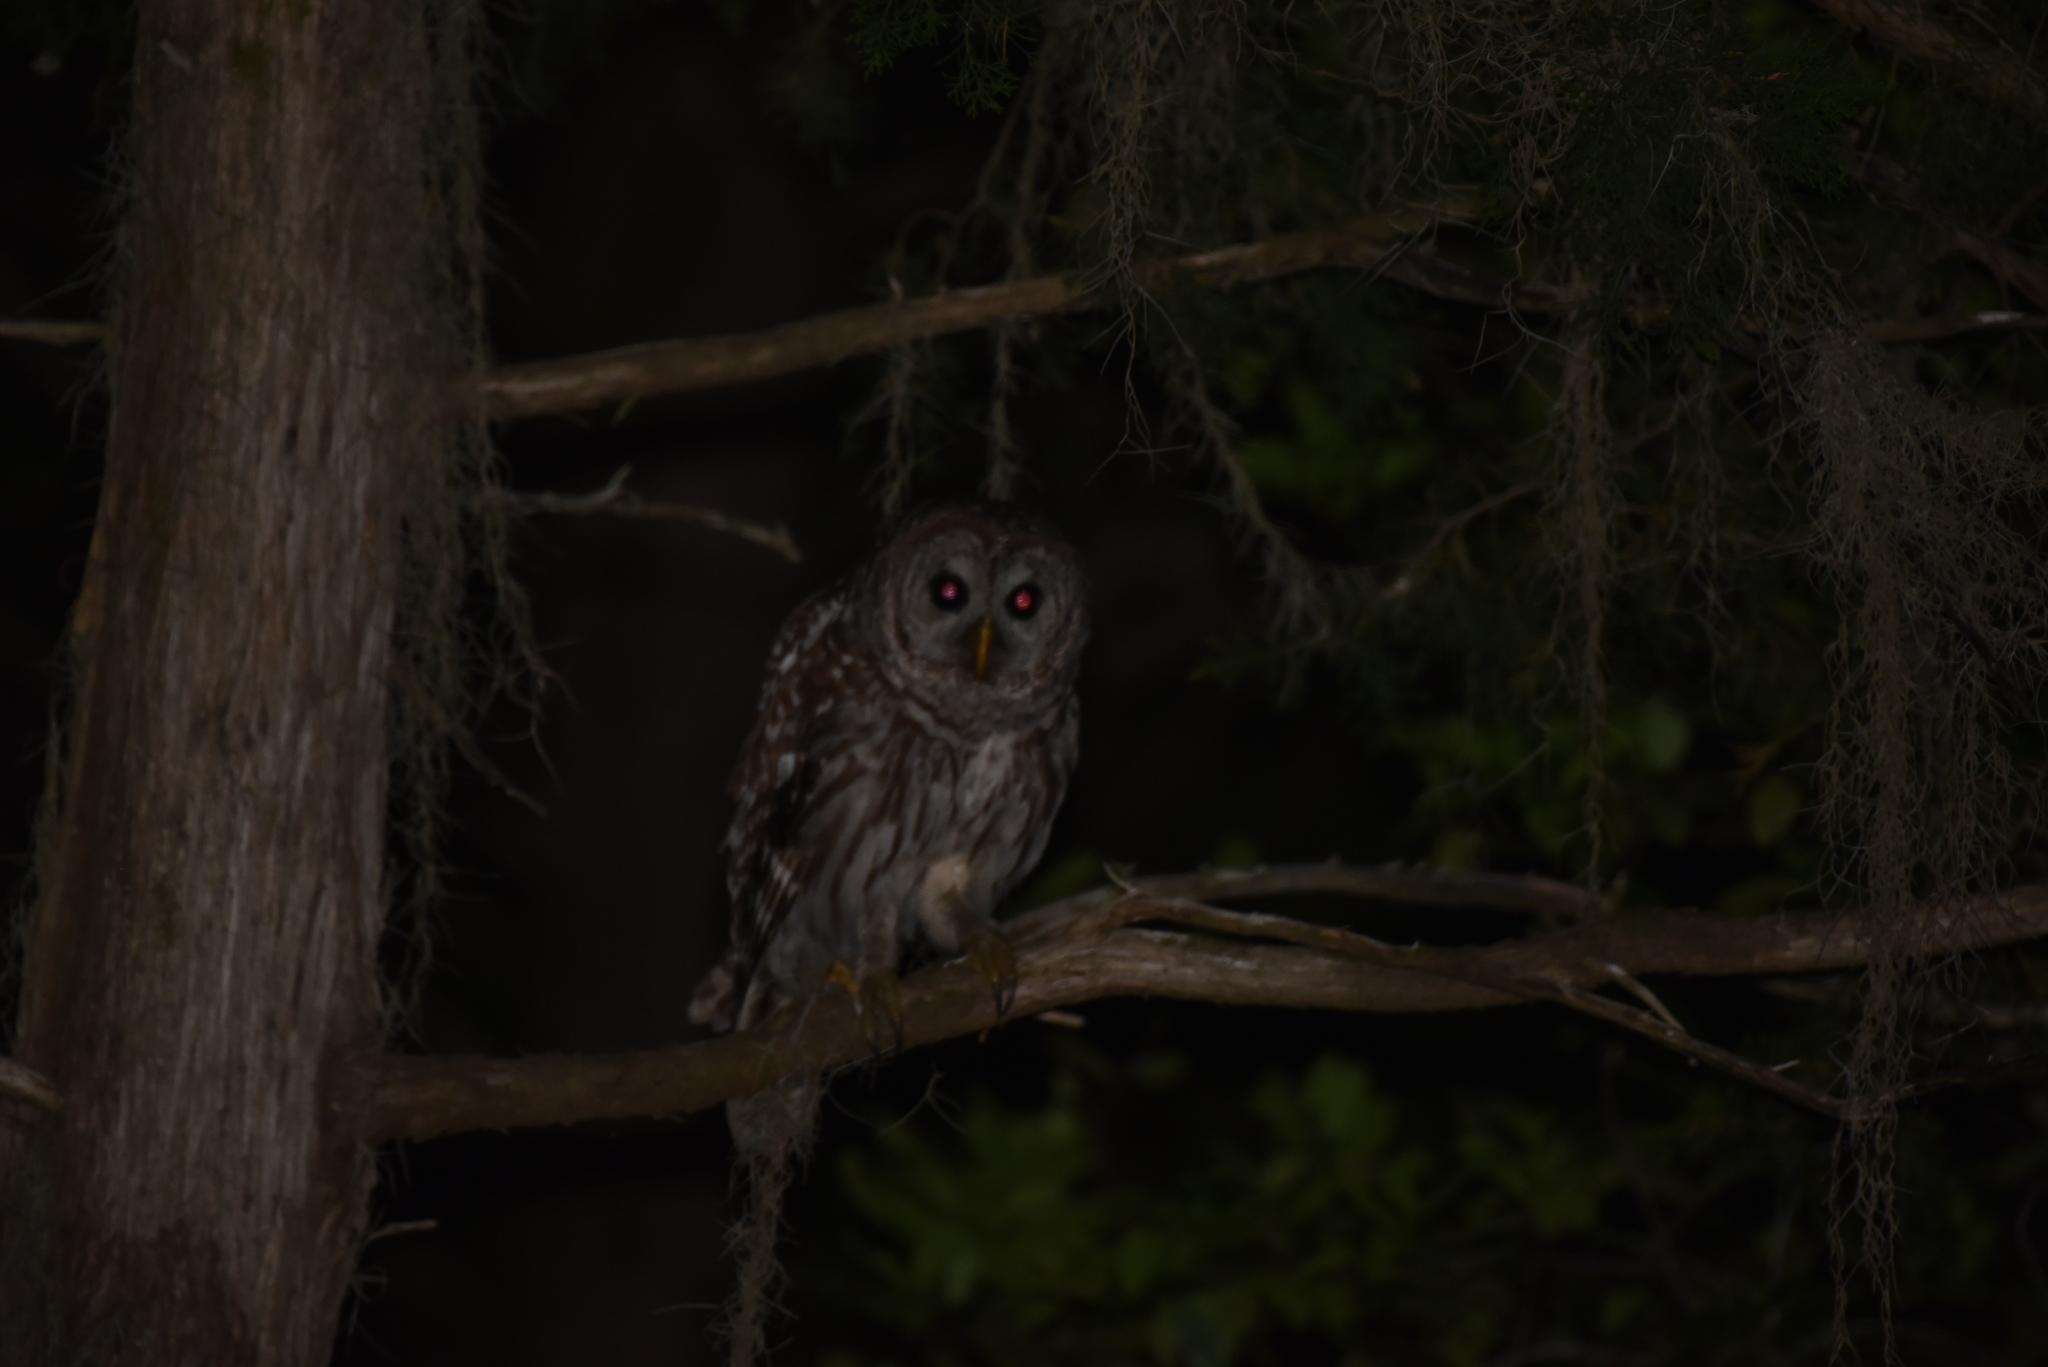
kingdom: Animalia
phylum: Chordata
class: Aves
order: Strigiformes
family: Strigidae
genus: Strix
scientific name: Strix varia
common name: Barred owl
